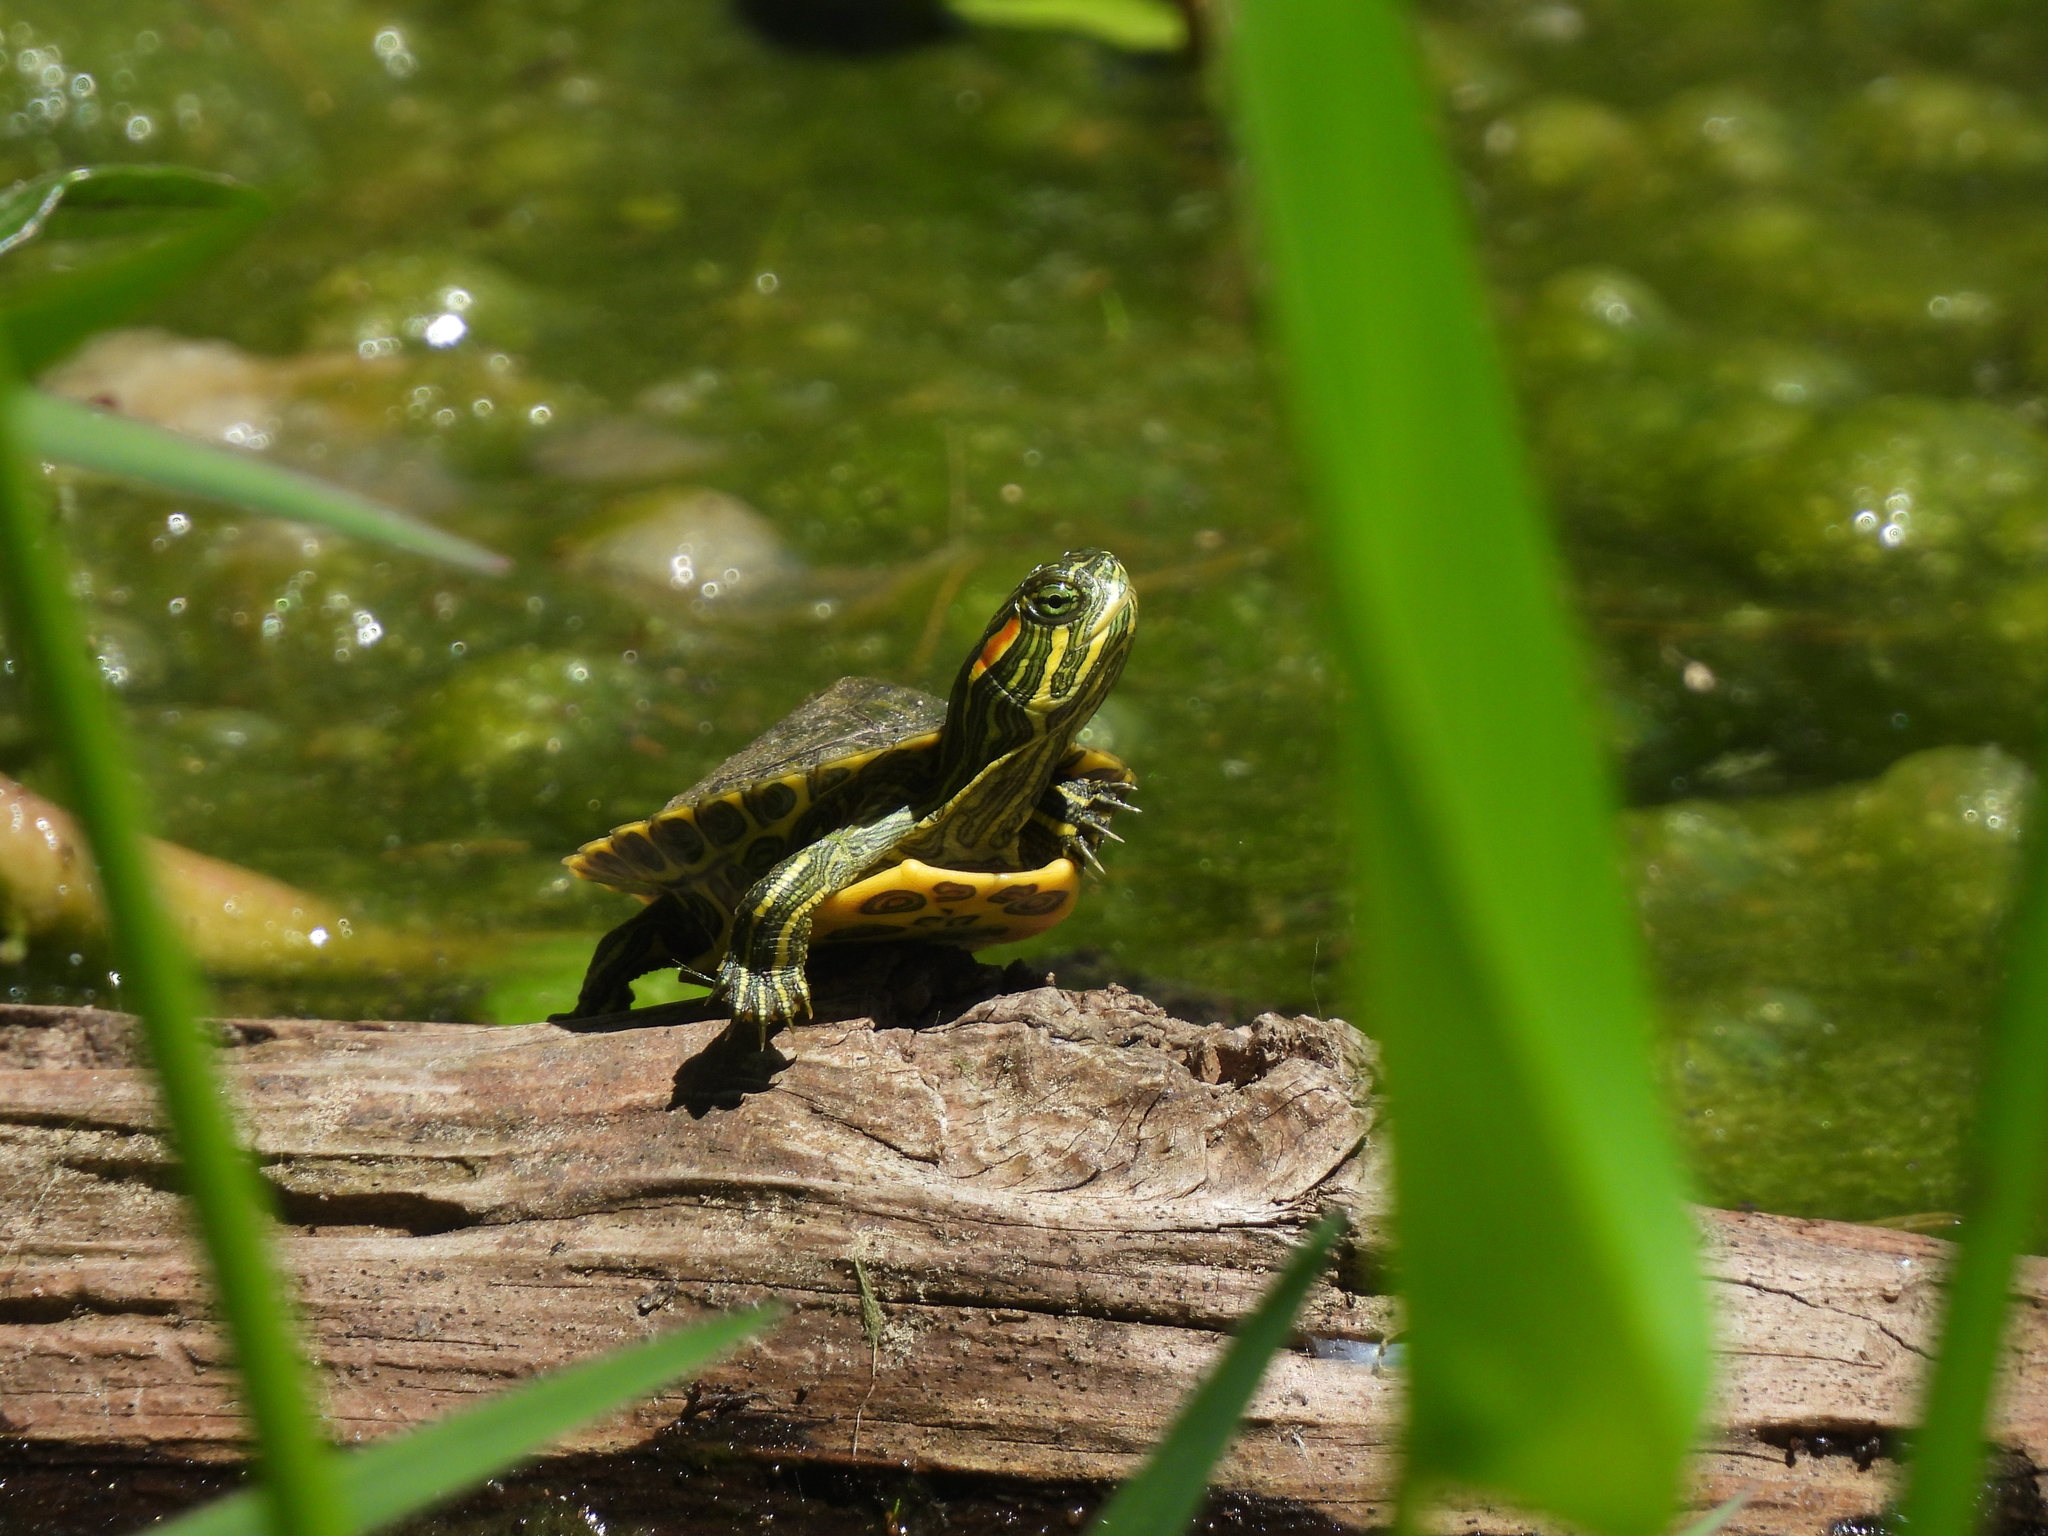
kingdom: Animalia
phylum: Chordata
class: Testudines
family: Emydidae
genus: Trachemys
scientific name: Trachemys scripta
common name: Slider
